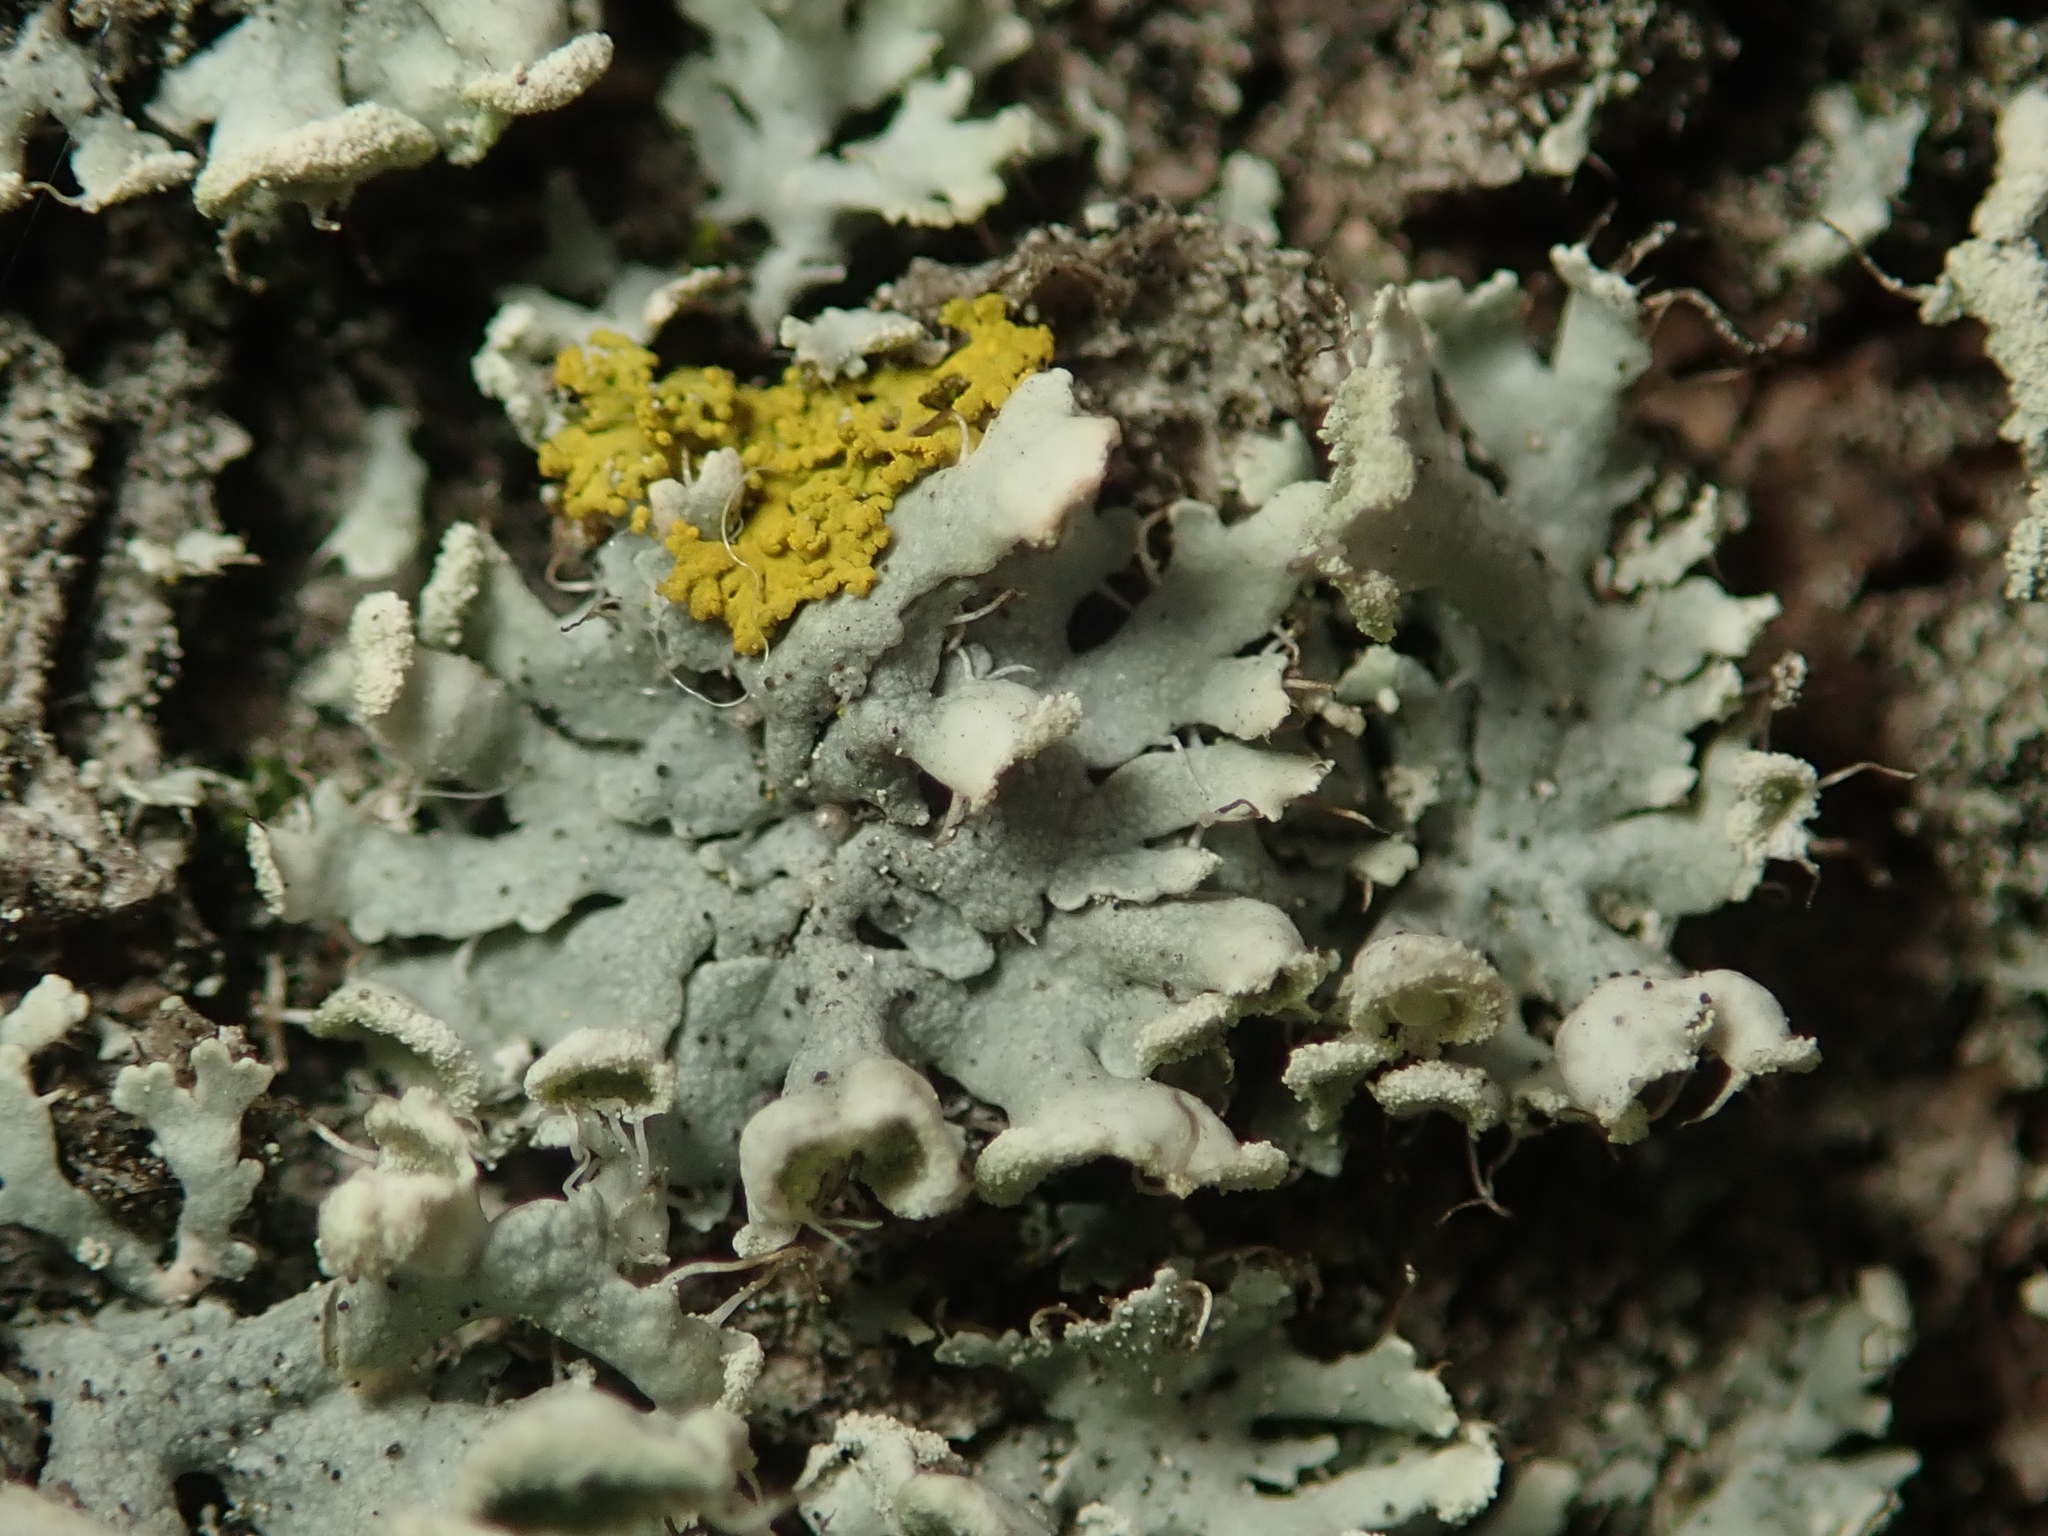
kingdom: Fungi
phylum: Ascomycota
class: Lecanoromycetes
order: Caliciales
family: Physciaceae
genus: Physcia
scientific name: Physcia adscendens
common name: Hooded rosette lichen
